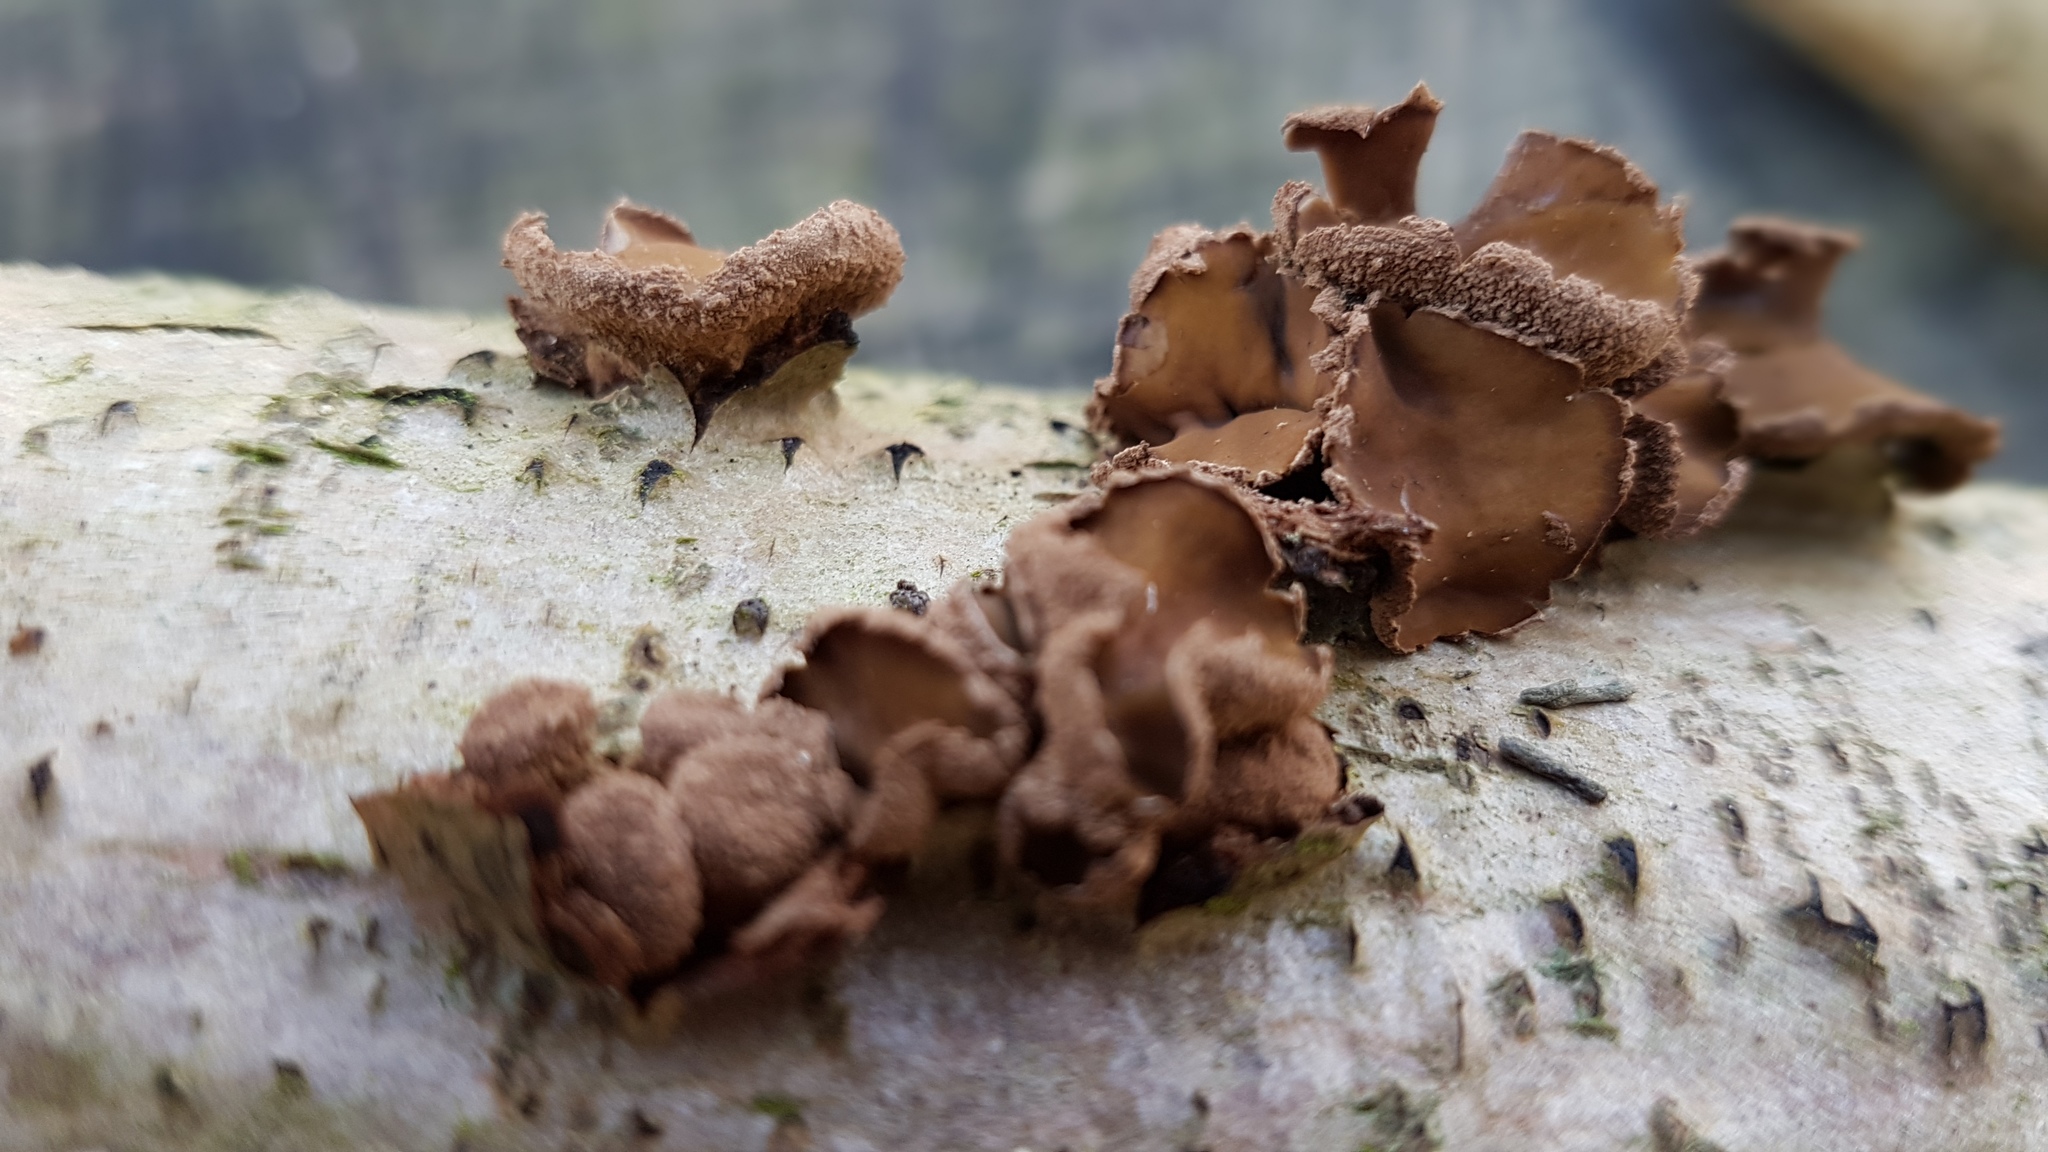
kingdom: Fungi
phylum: Ascomycota
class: Leotiomycetes
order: Helotiales
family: Cenangiaceae
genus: Encoelia
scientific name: Encoelia furfuracea
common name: Spring hazelcup
